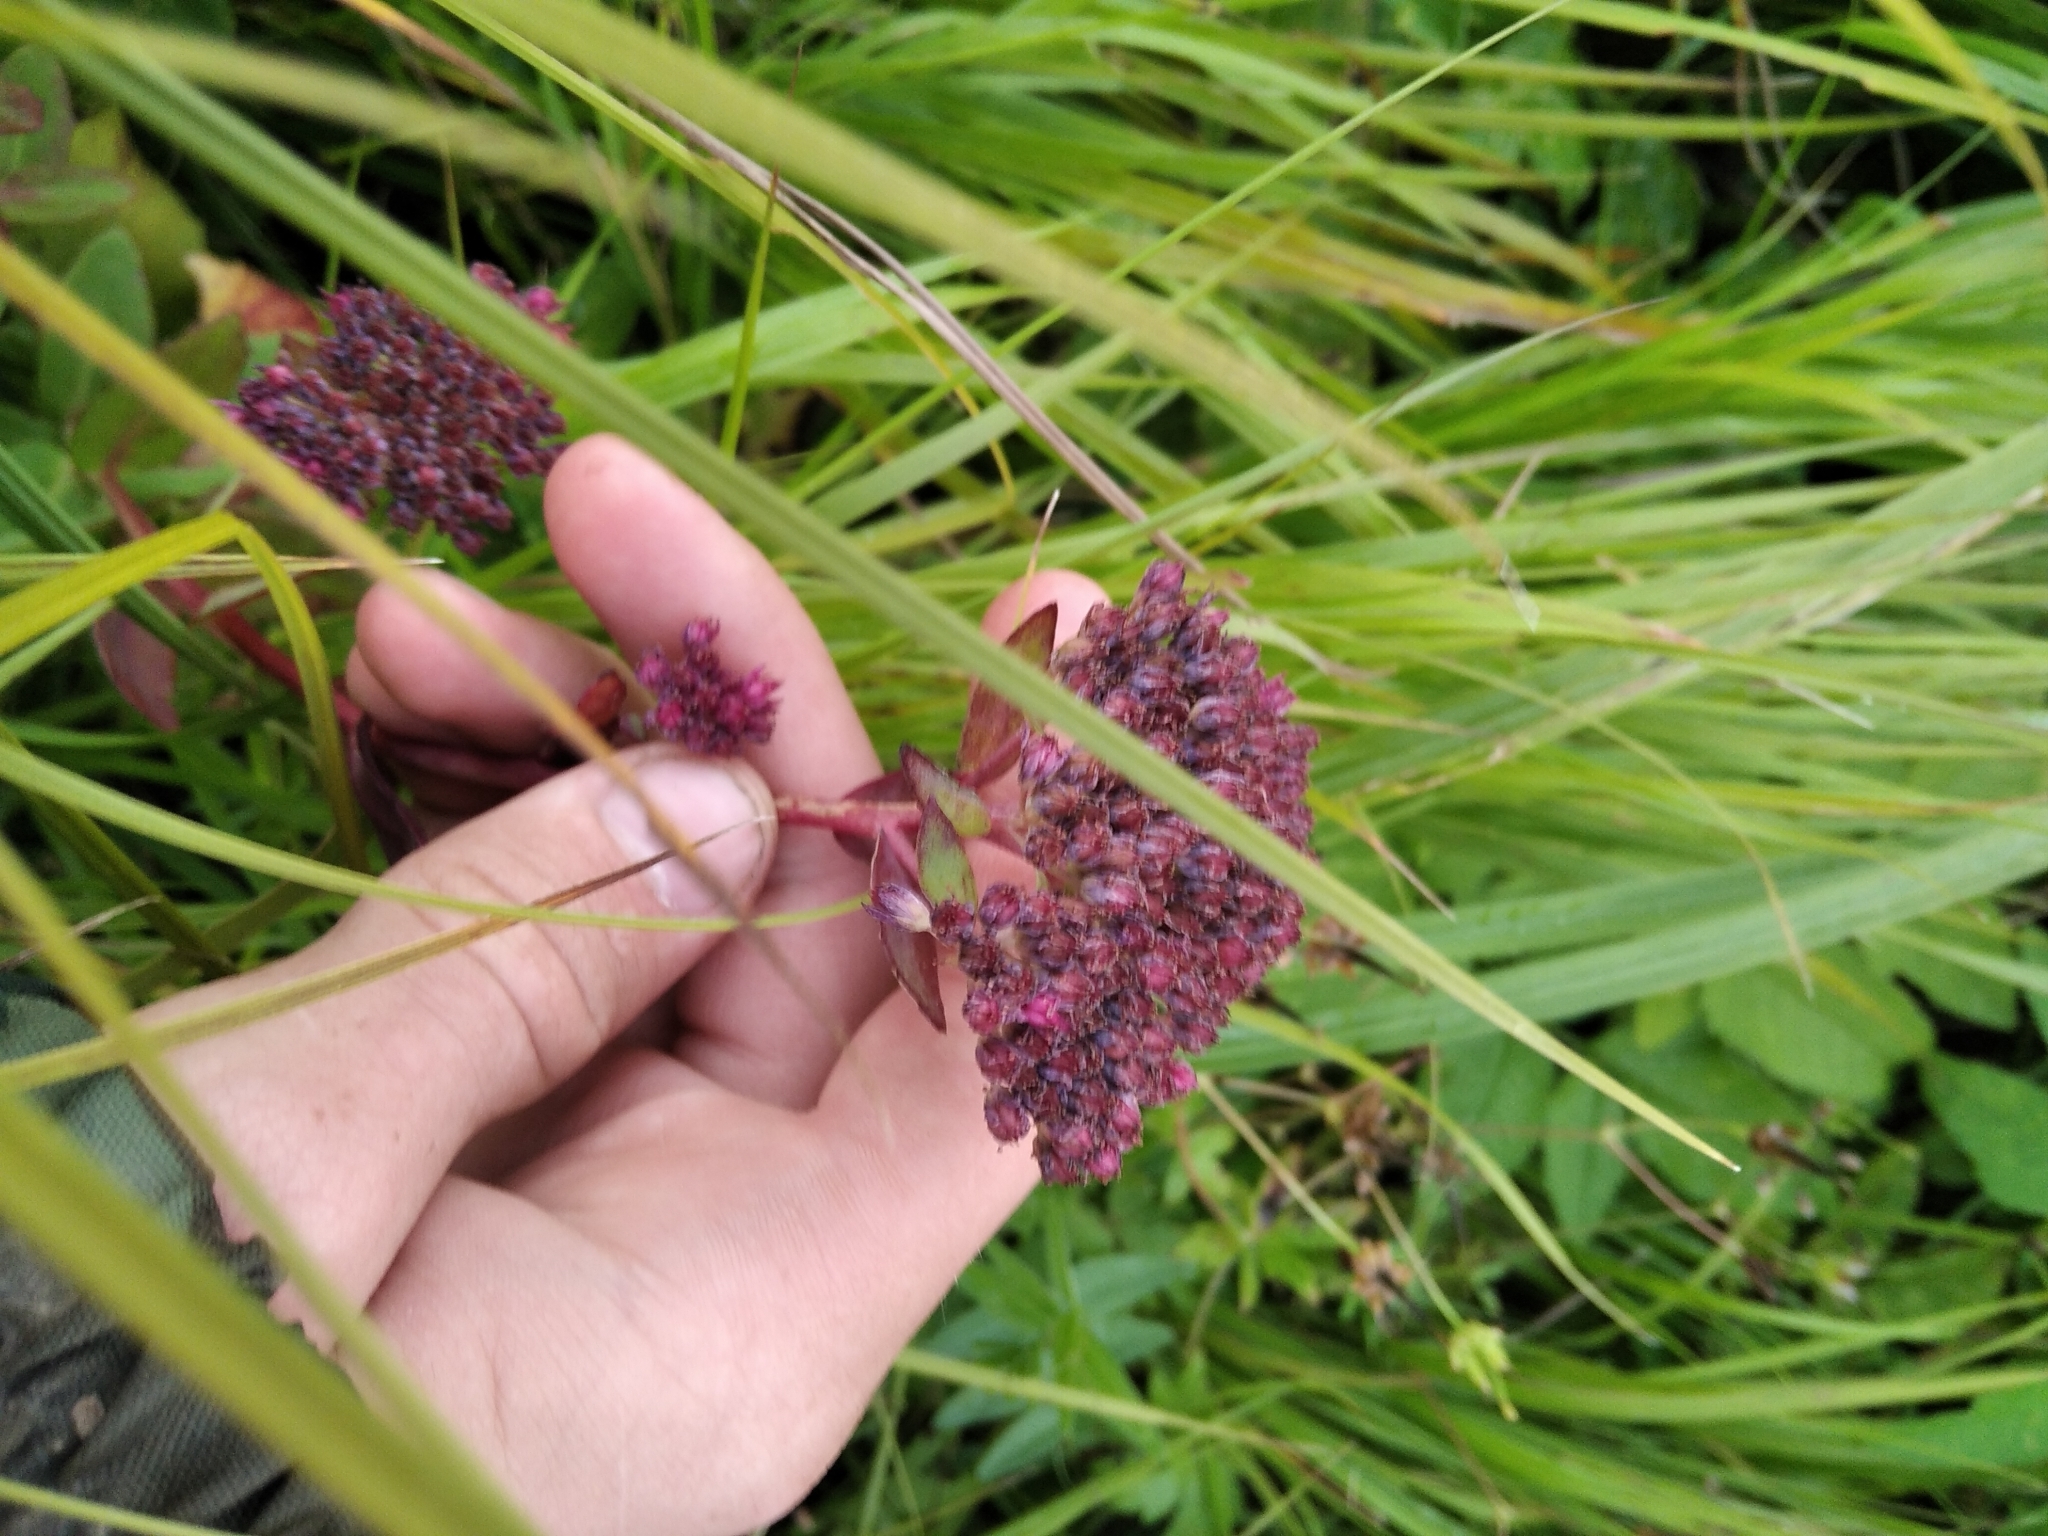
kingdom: Plantae
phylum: Tracheophyta
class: Magnoliopsida
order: Saxifragales
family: Crassulaceae
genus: Hylotelephium
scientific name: Hylotelephium telephium
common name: Live-forever
